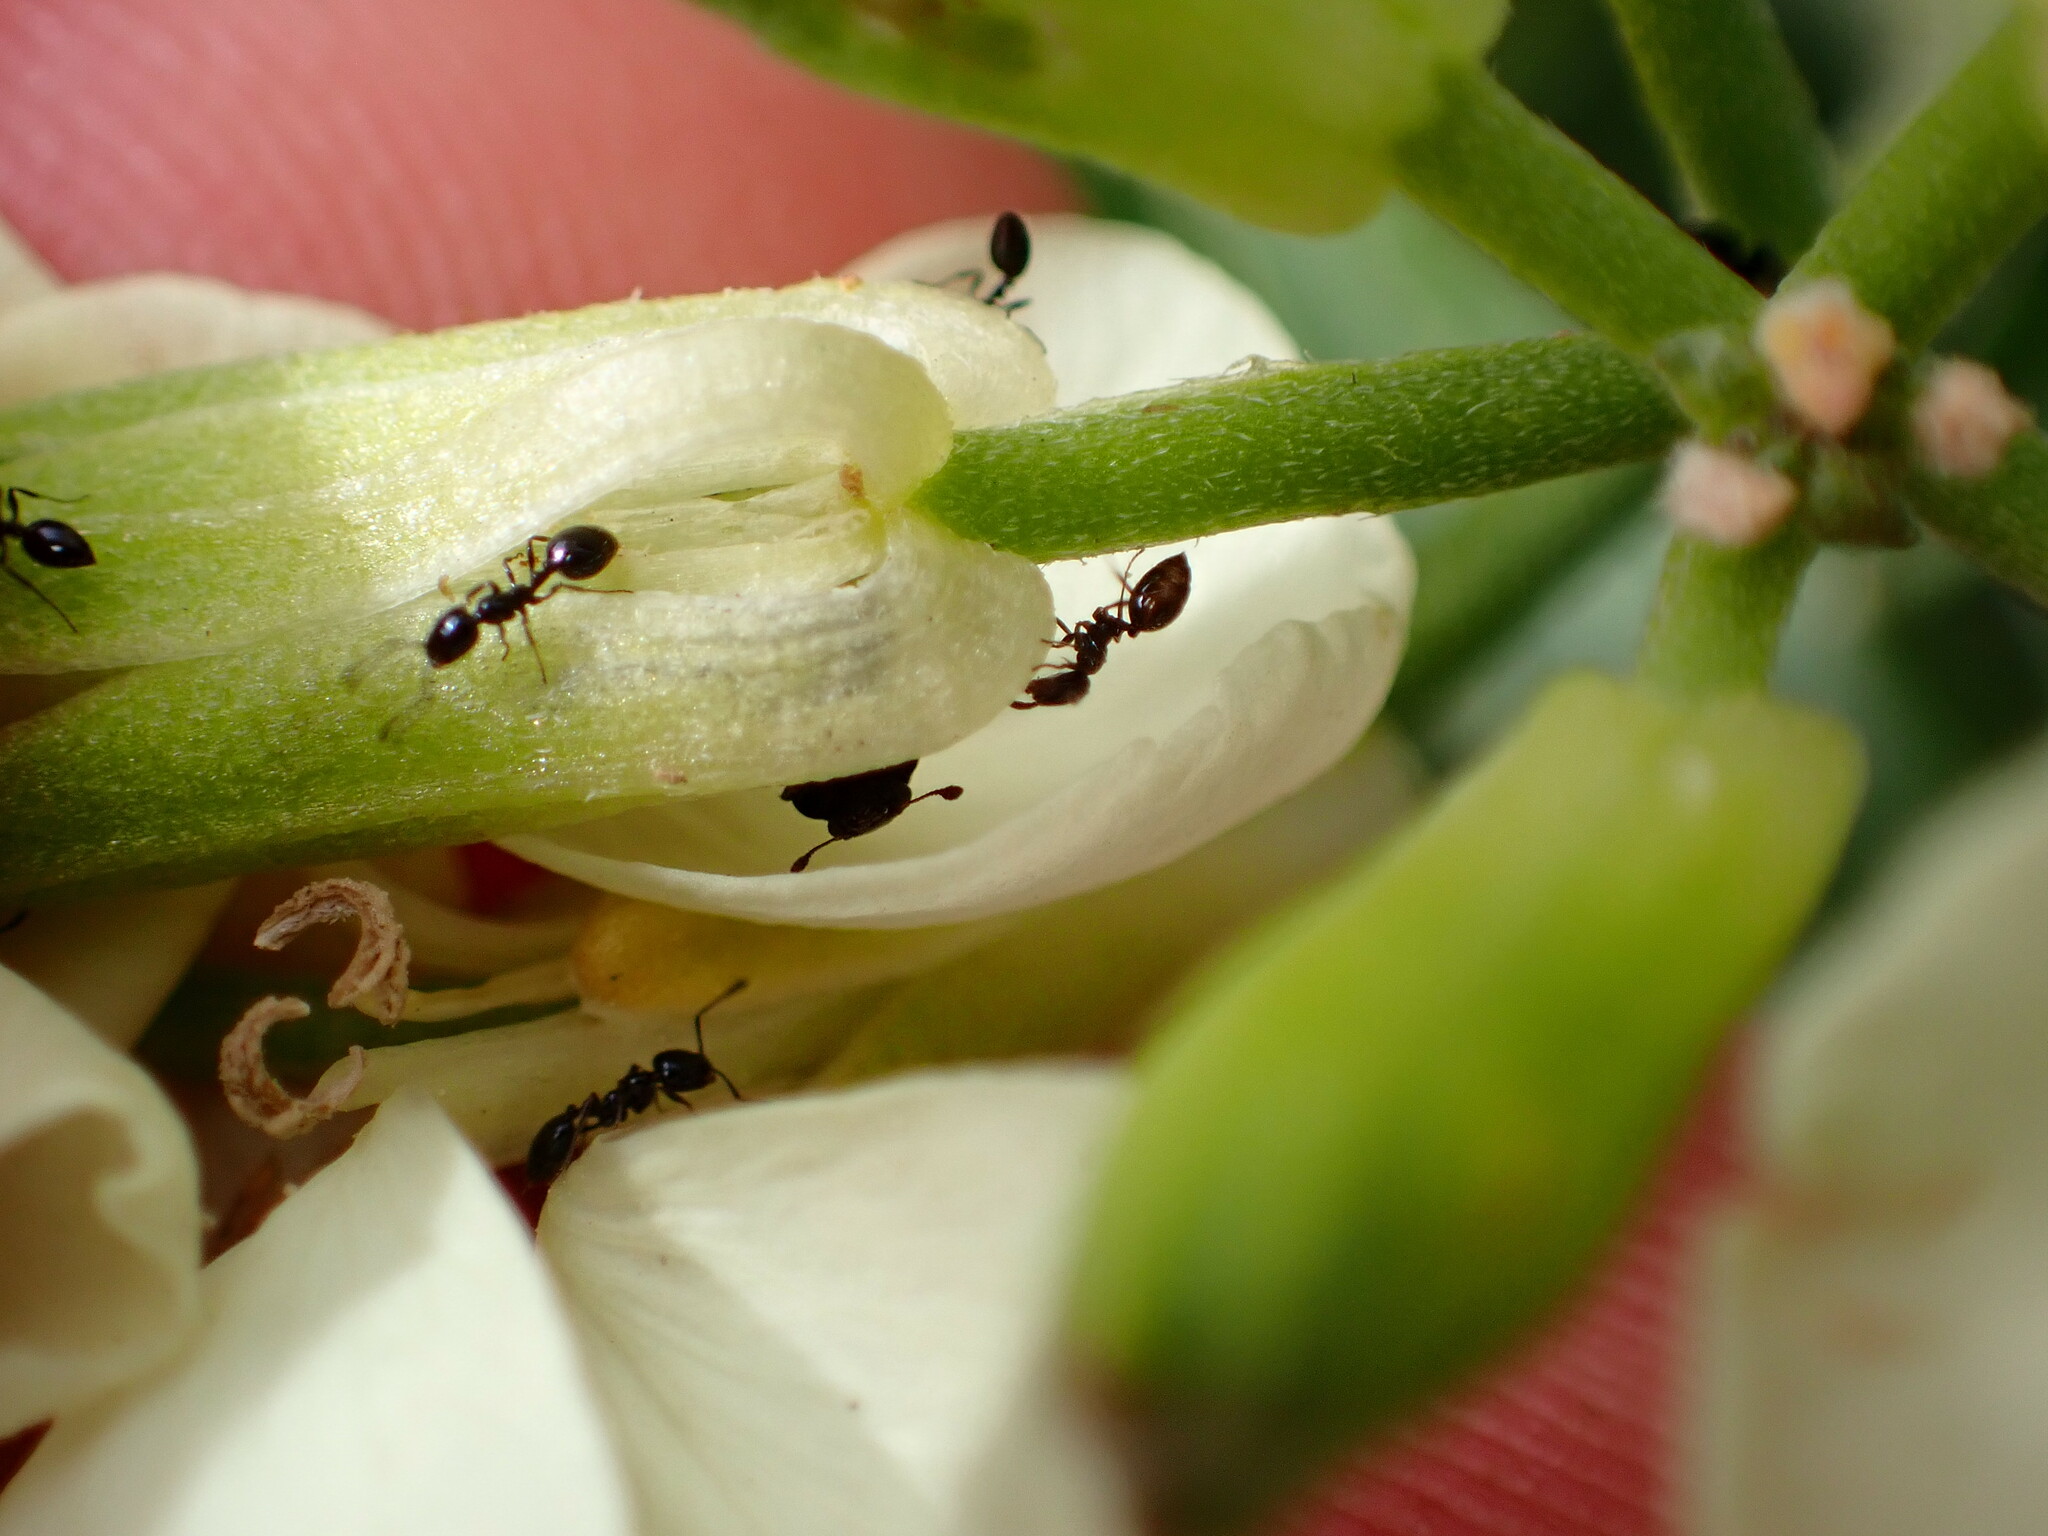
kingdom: Animalia
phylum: Arthropoda
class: Insecta
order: Hymenoptera
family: Formicidae
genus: Monomorium
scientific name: Monomorium ergatogyna
